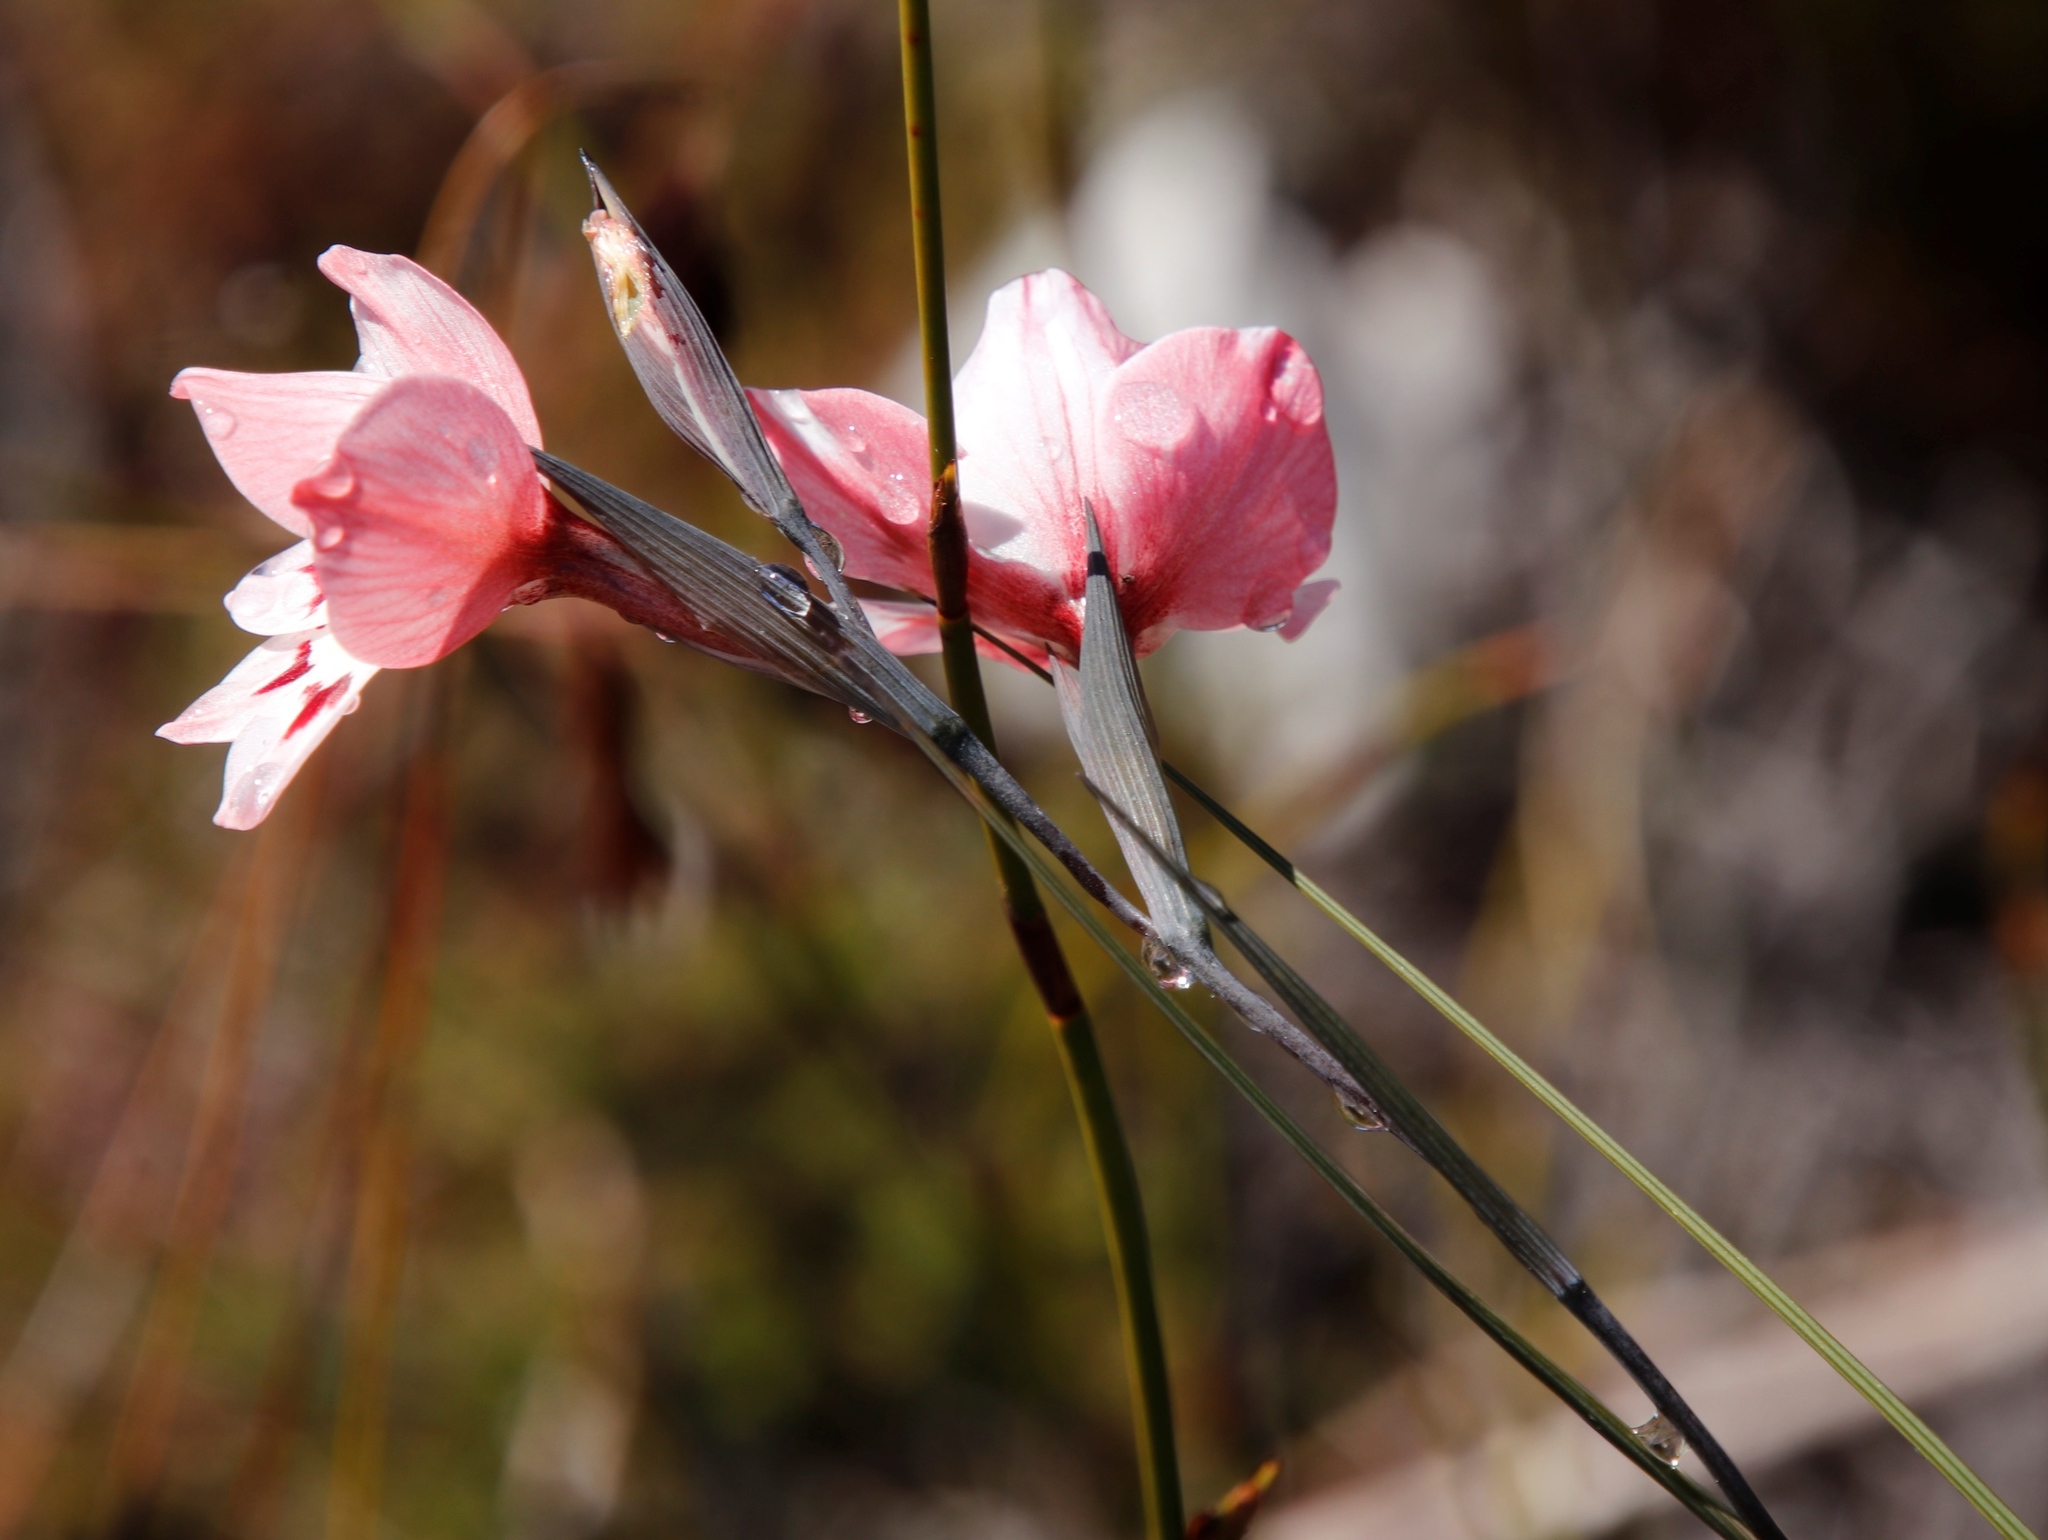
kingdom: Plantae
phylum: Tracheophyta
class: Liliopsida
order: Asparagales
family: Iridaceae
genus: Gladiolus
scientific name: Gladiolus debilis
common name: Painted-lady
